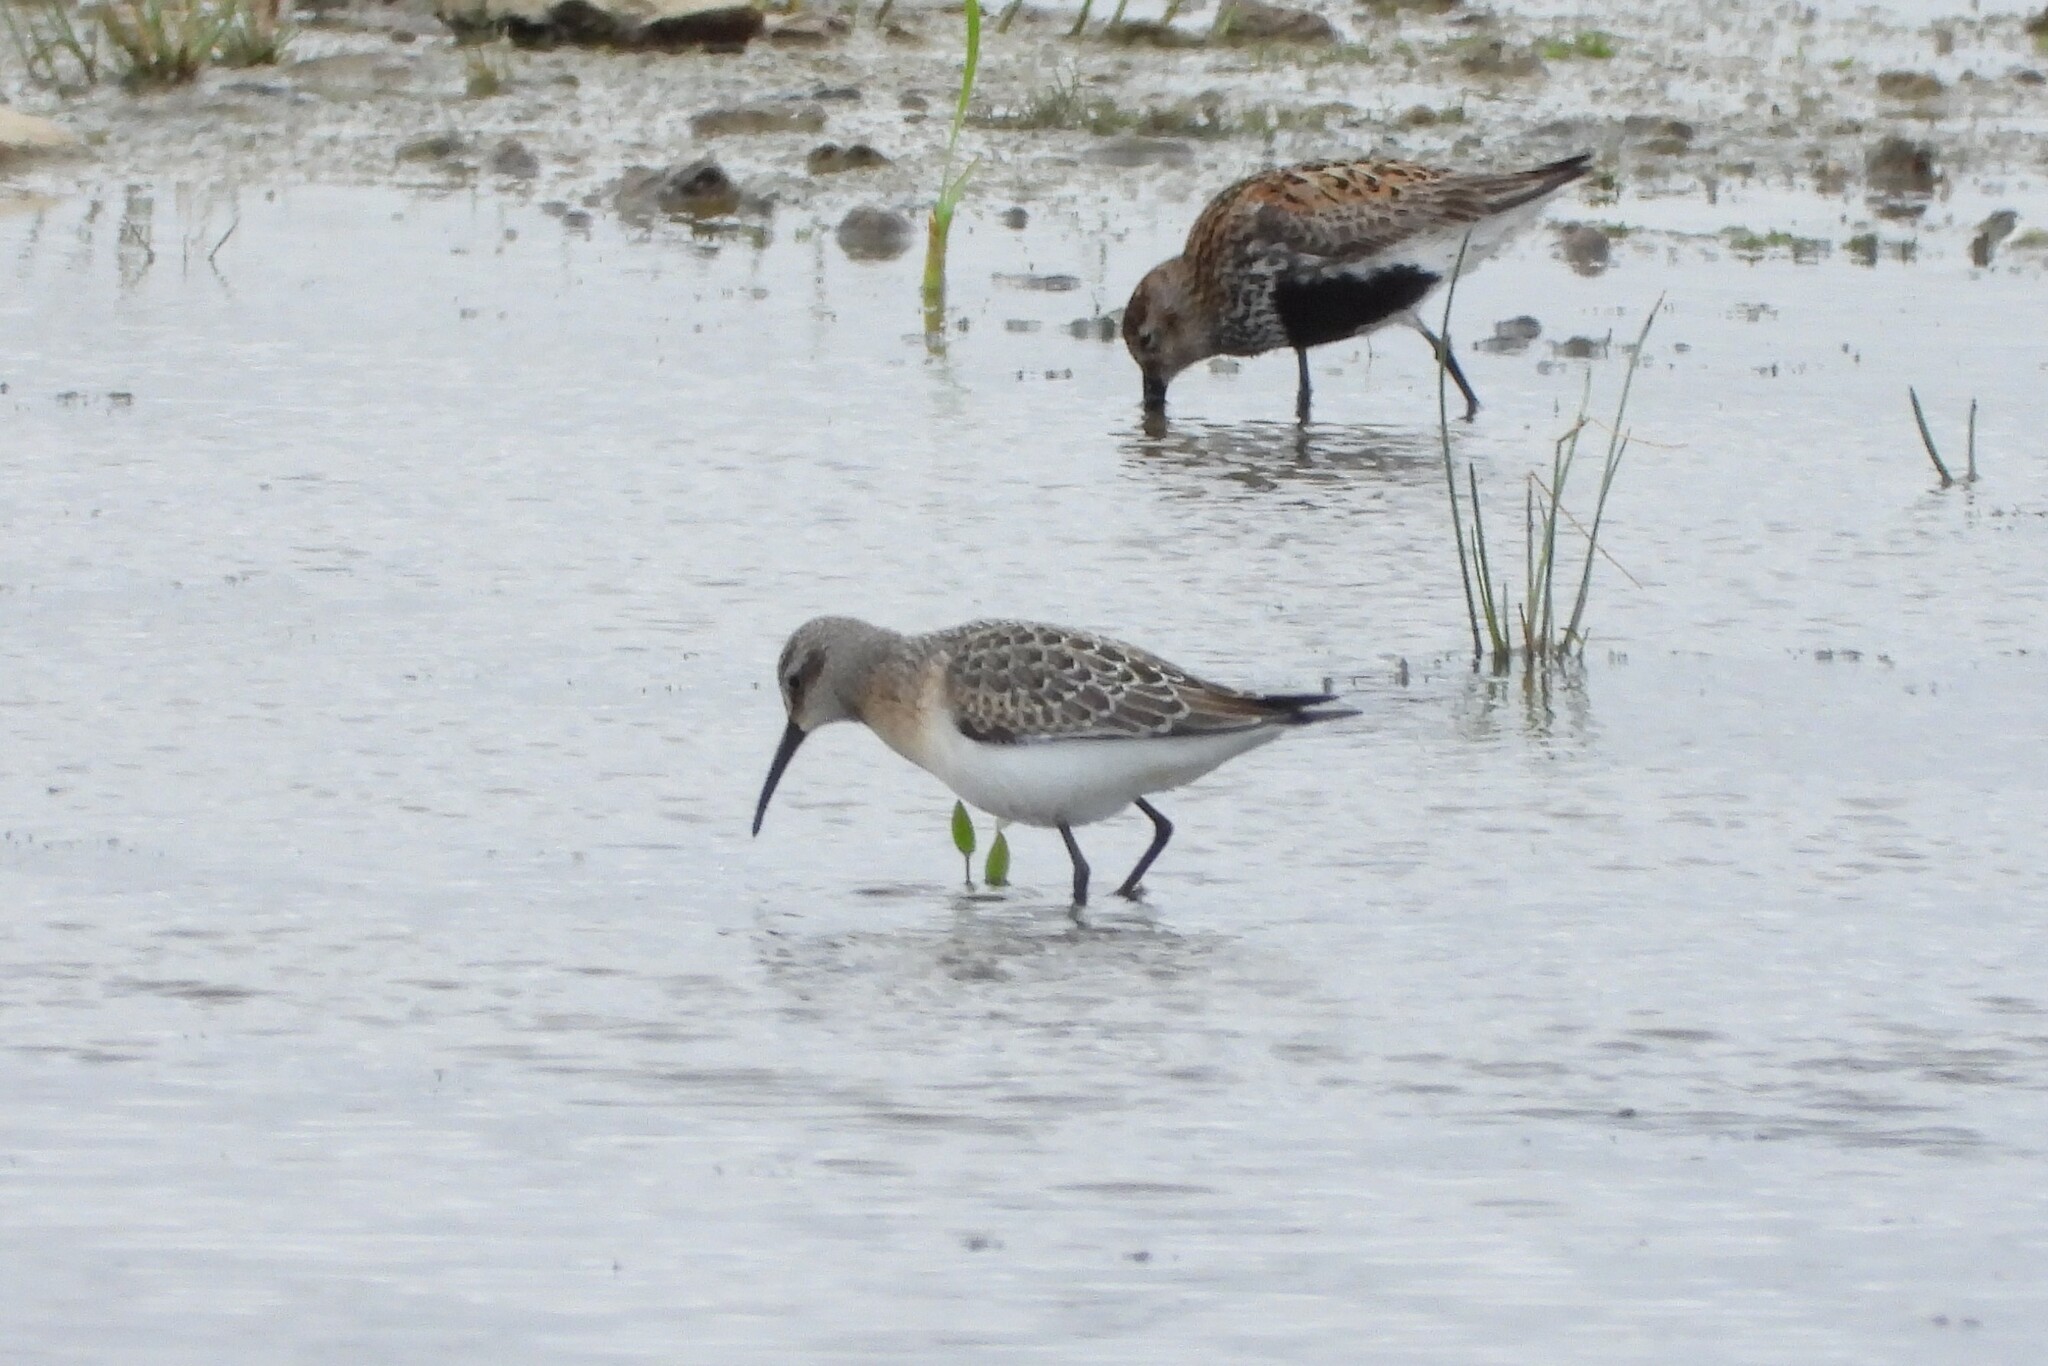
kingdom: Animalia
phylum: Chordata
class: Aves
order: Charadriiformes
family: Scolopacidae
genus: Calidris
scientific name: Calidris ferruginea
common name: Curlew sandpiper
